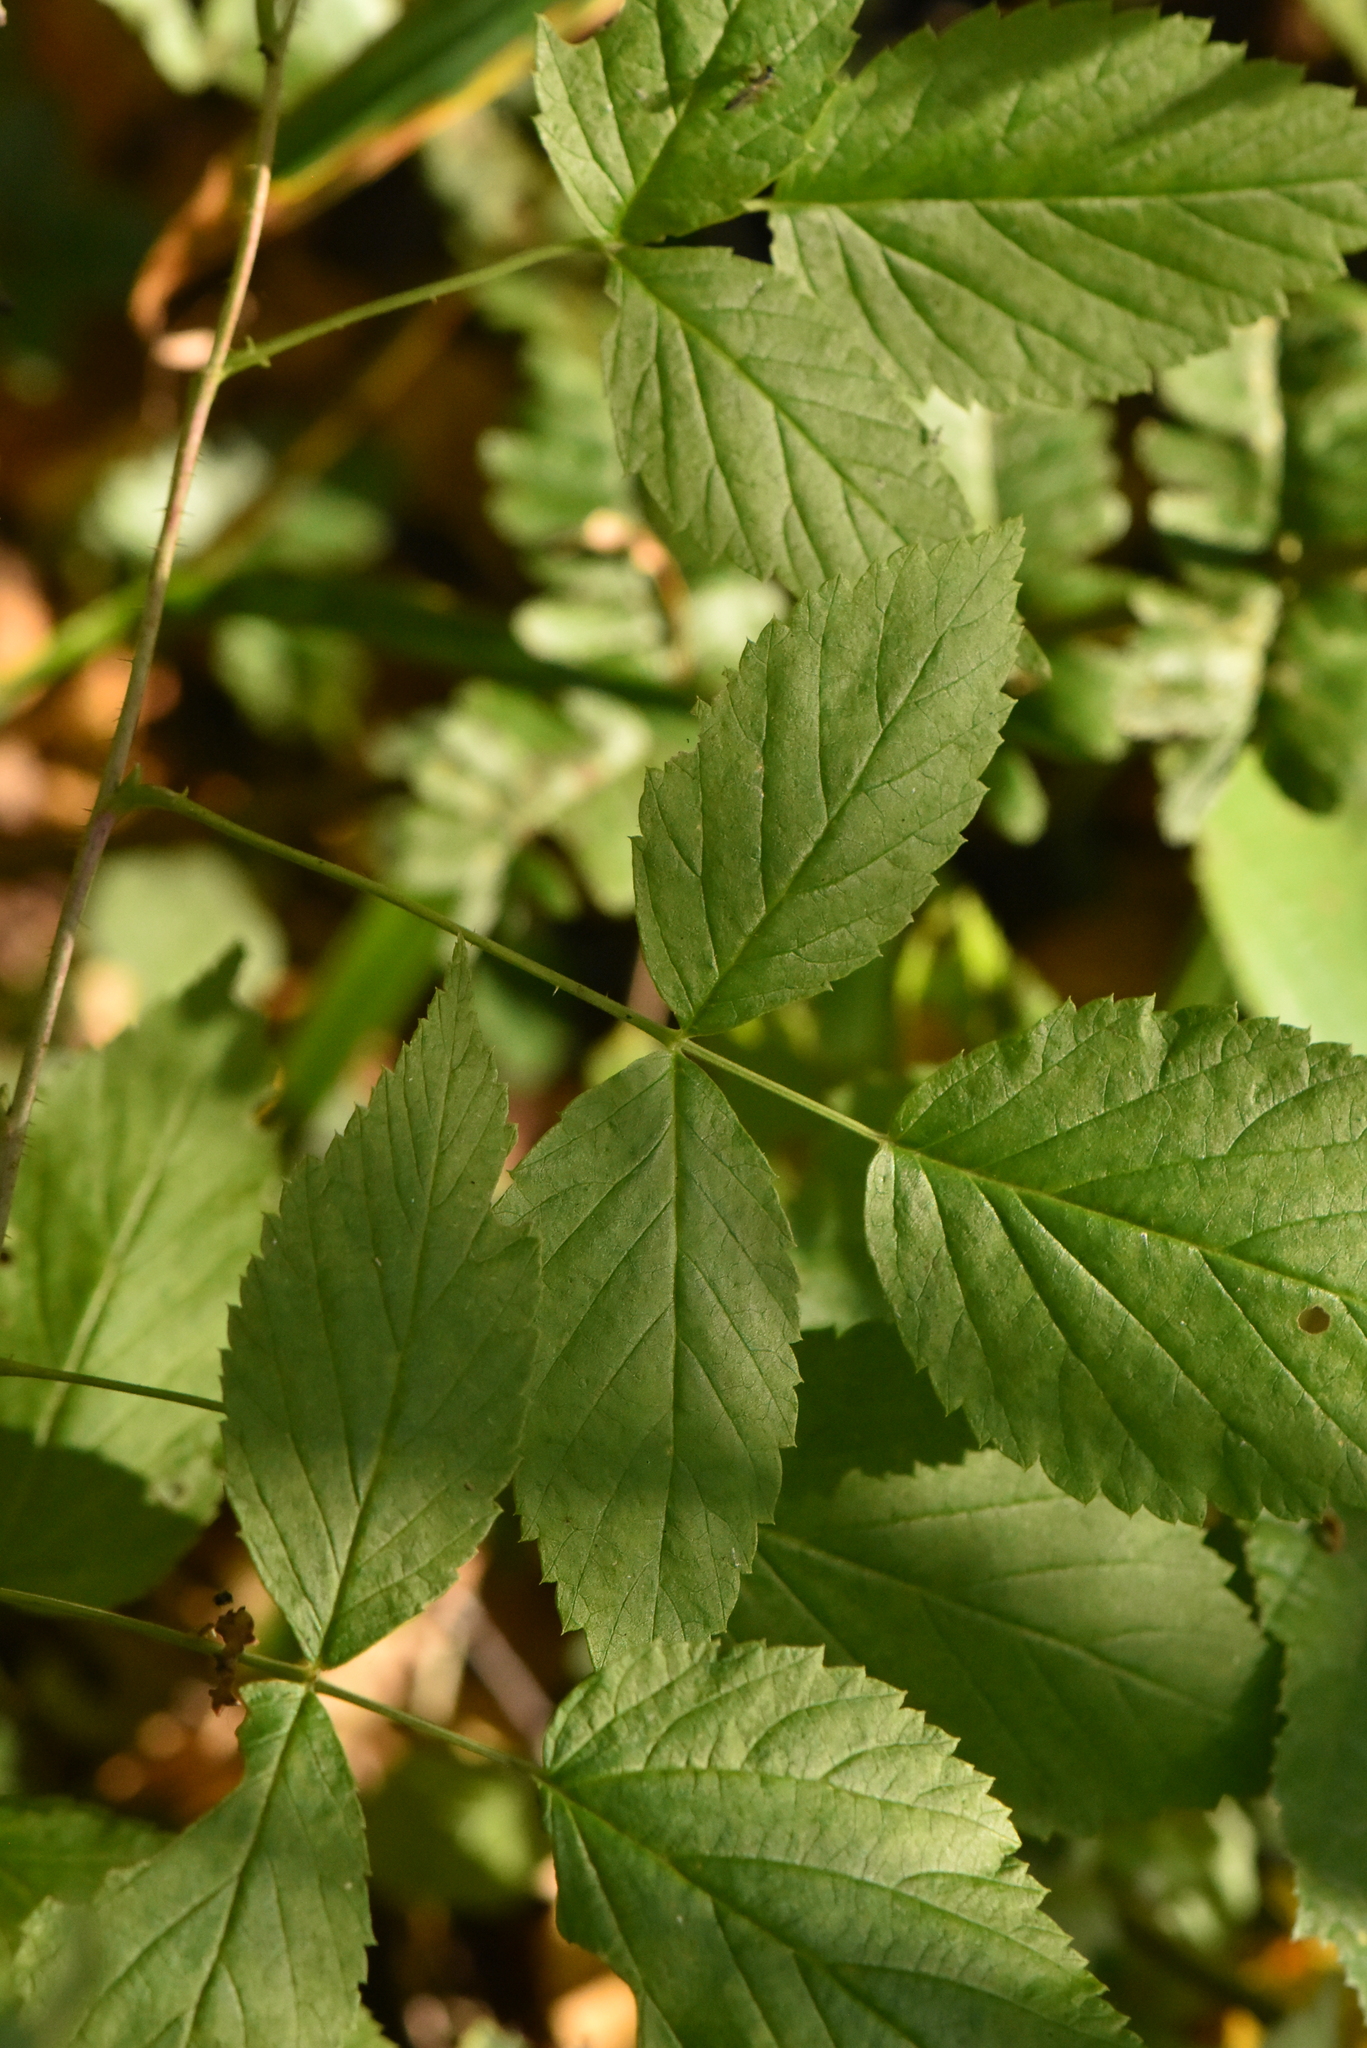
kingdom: Plantae
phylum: Tracheophyta
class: Magnoliopsida
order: Rosales
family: Rosaceae
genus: Rubus
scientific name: Rubus idaeus
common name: Raspberry
